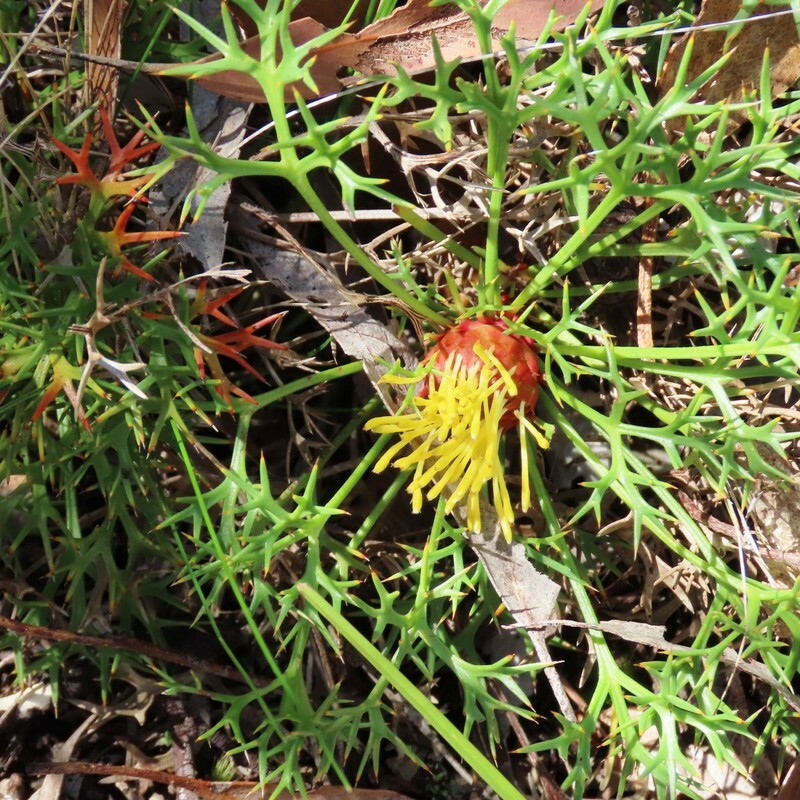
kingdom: Plantae
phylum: Tracheophyta
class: Magnoliopsida
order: Proteales
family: Proteaceae
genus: Isopogon
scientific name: Isopogon ceratophyllus
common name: Horny cone-bush
